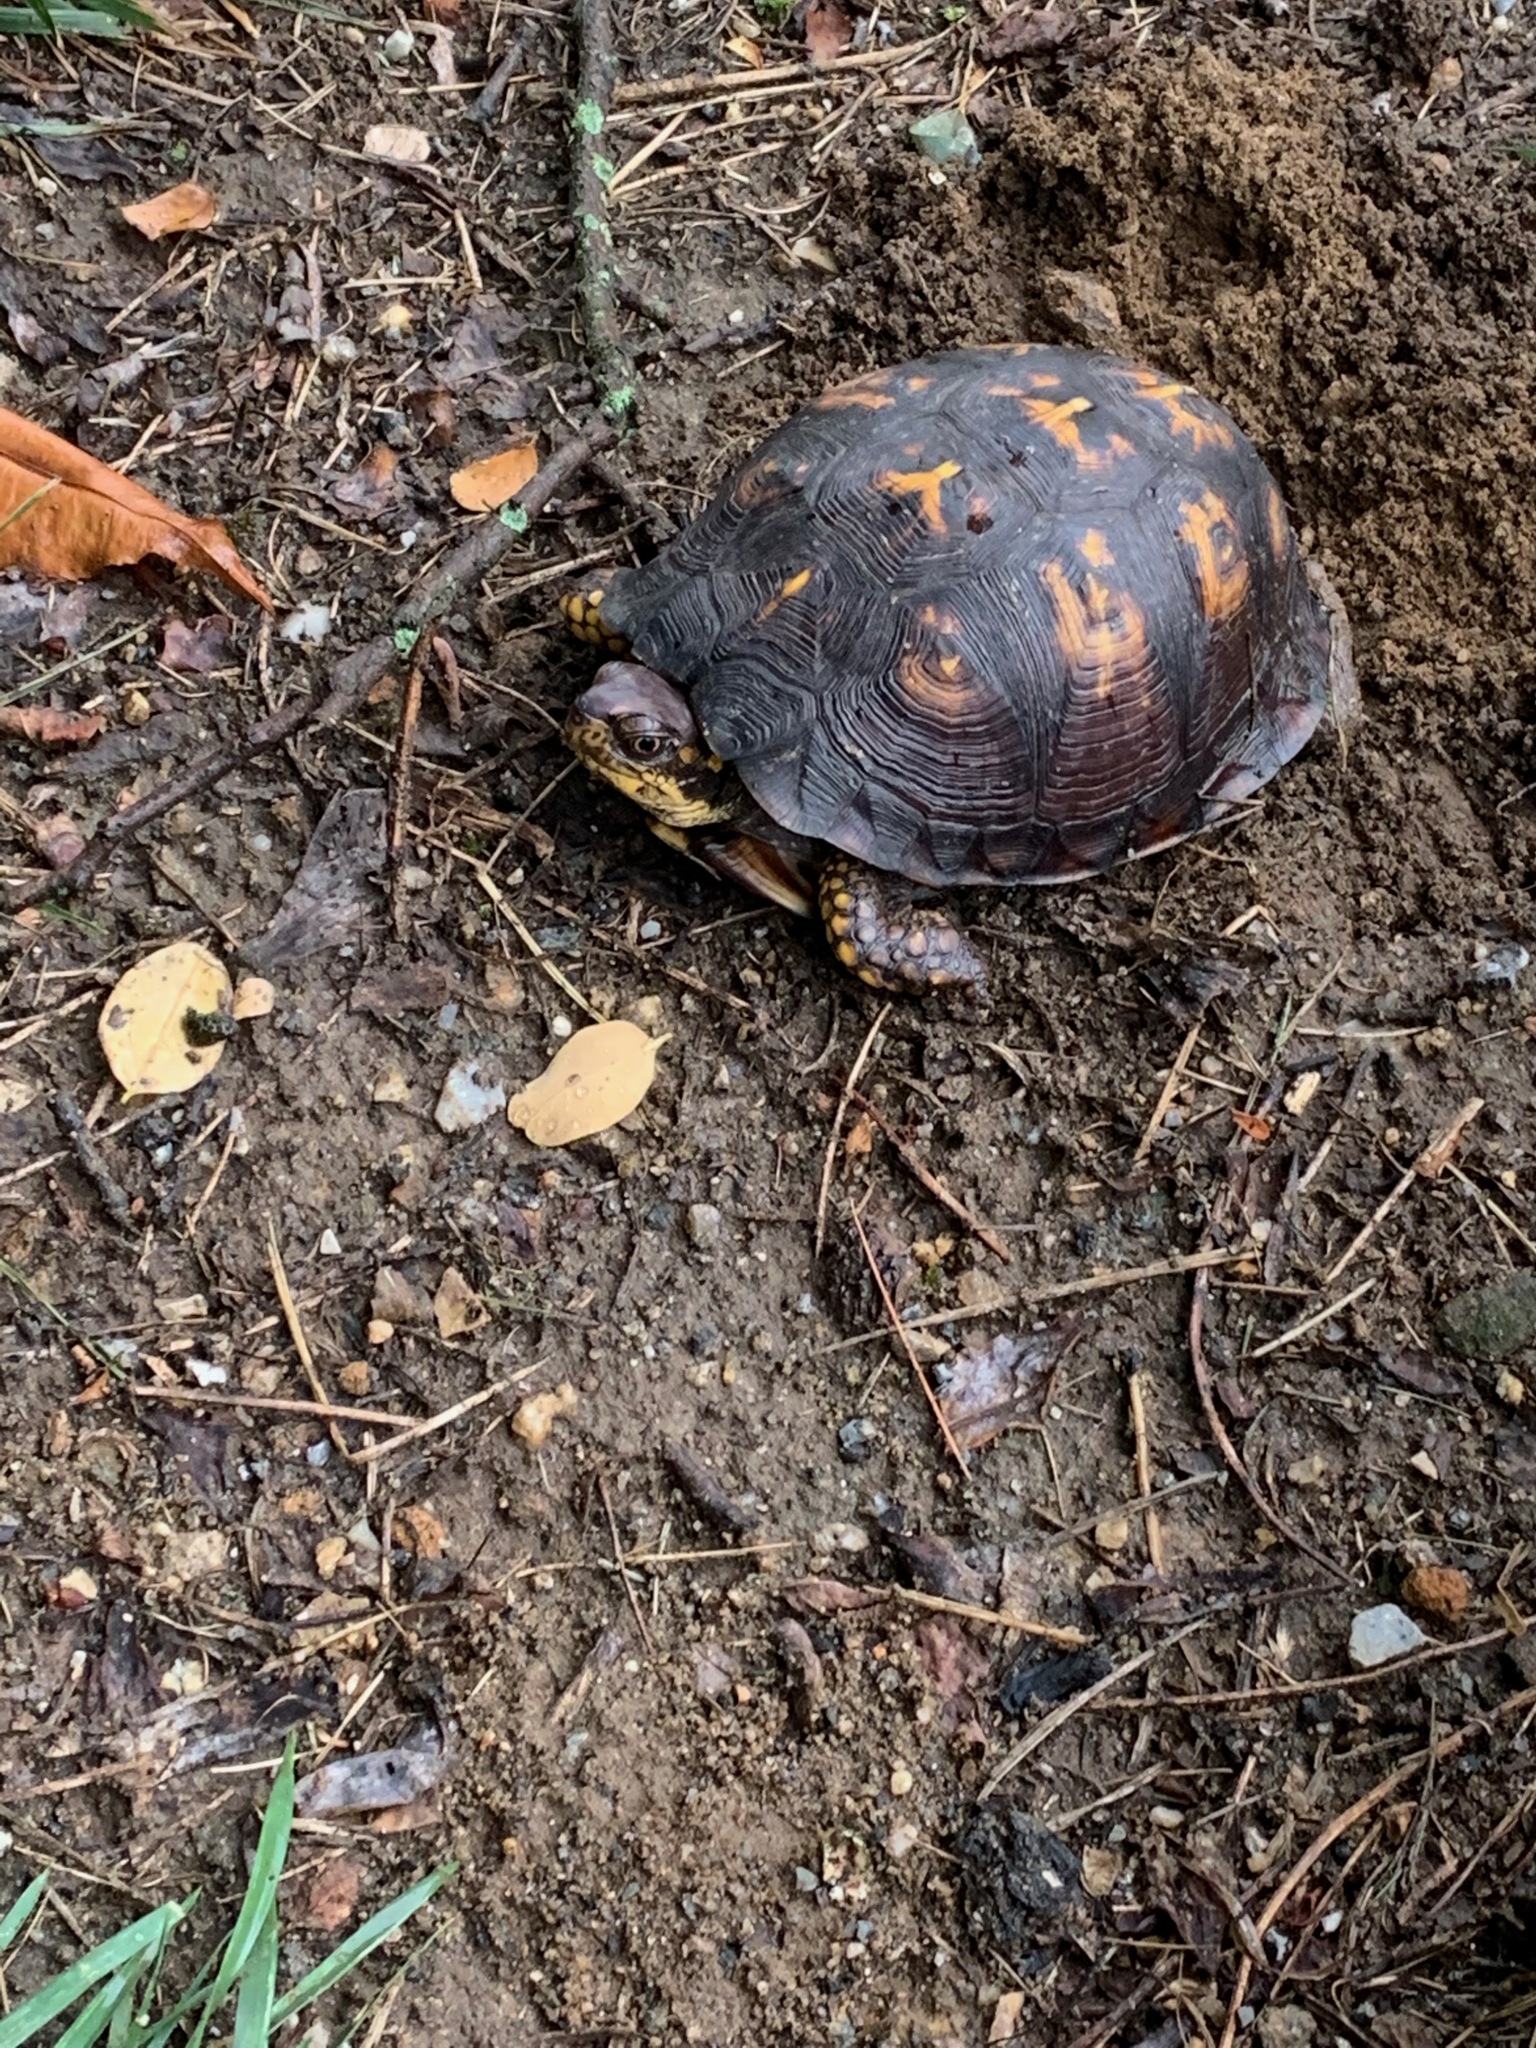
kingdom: Animalia
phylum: Chordata
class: Testudines
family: Emydidae
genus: Terrapene
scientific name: Terrapene carolina
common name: Common box turtle
